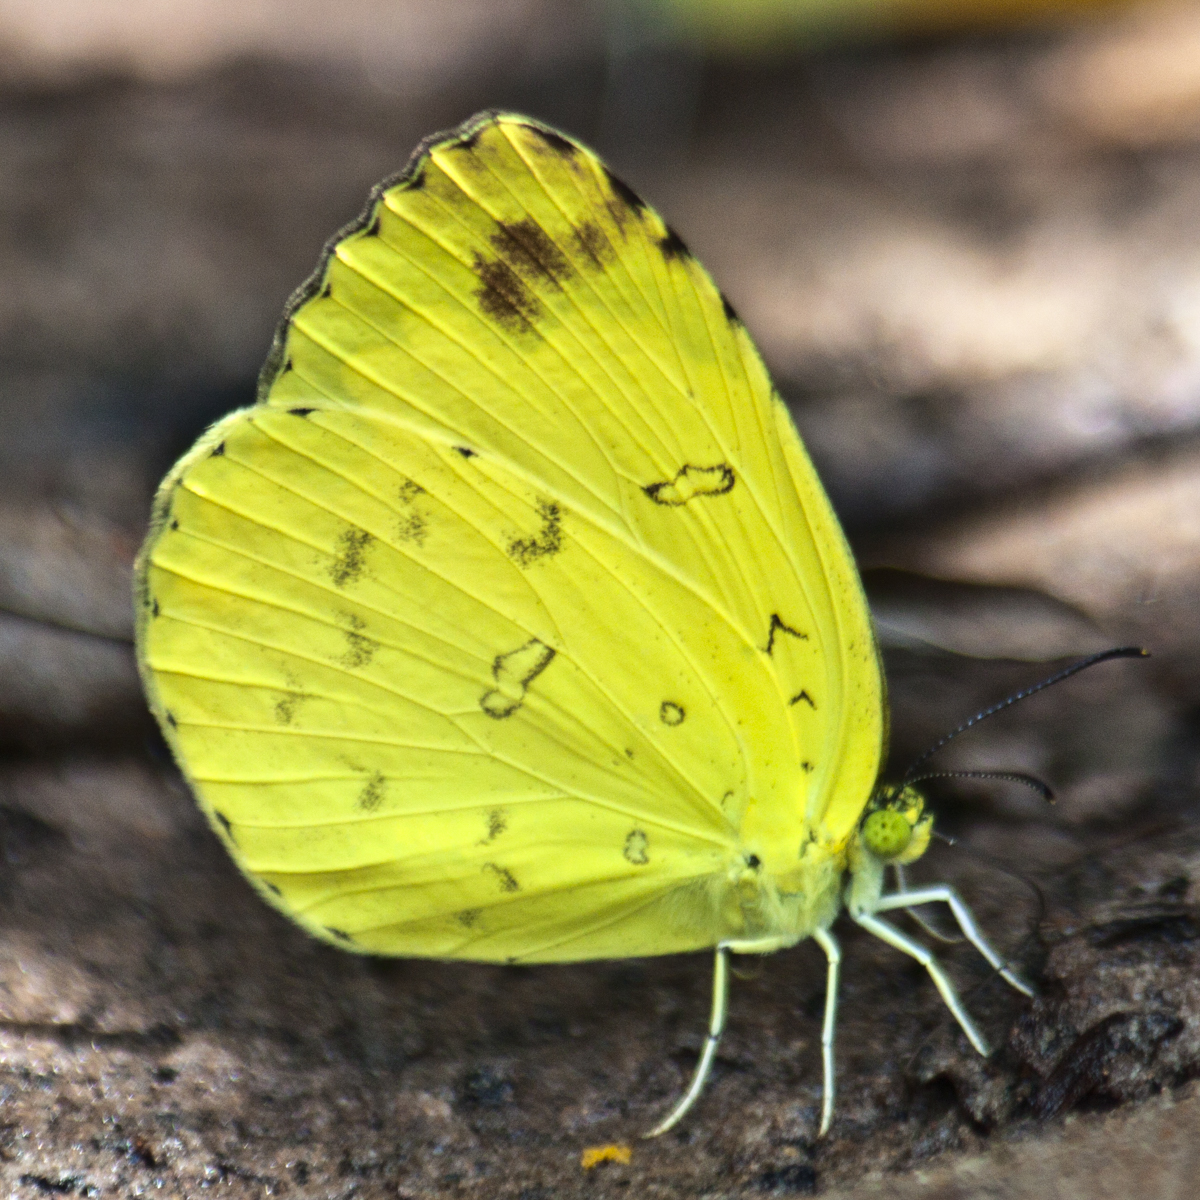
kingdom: Animalia
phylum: Arthropoda
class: Insecta
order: Lepidoptera
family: Pieridae
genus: Eurema
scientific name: Eurema blanda
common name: Three-spot grass yellow
